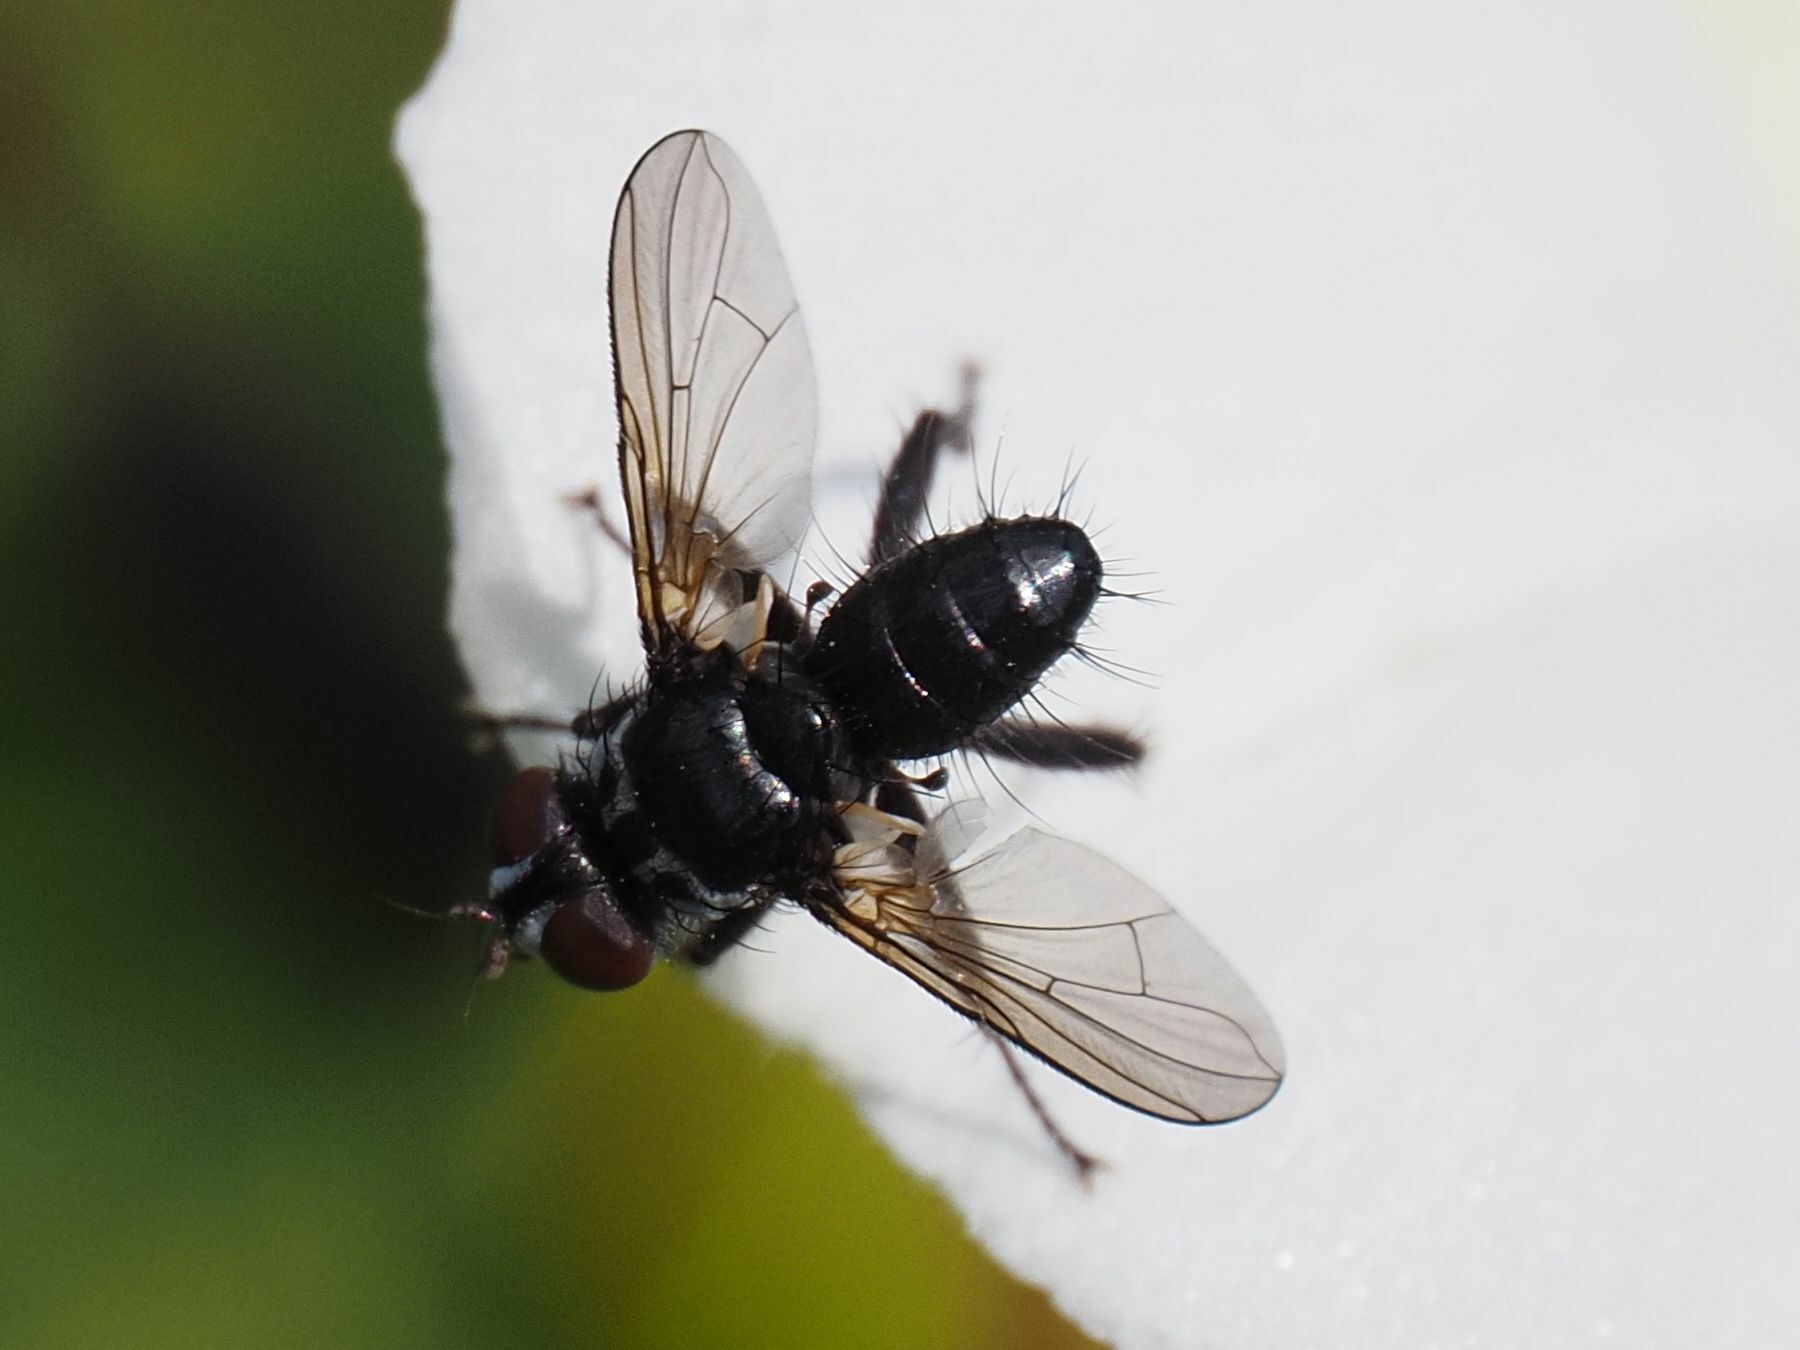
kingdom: Animalia
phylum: Arthropoda
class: Insecta
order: Diptera
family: Tachinidae
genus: Phania
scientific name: Phania funesta
